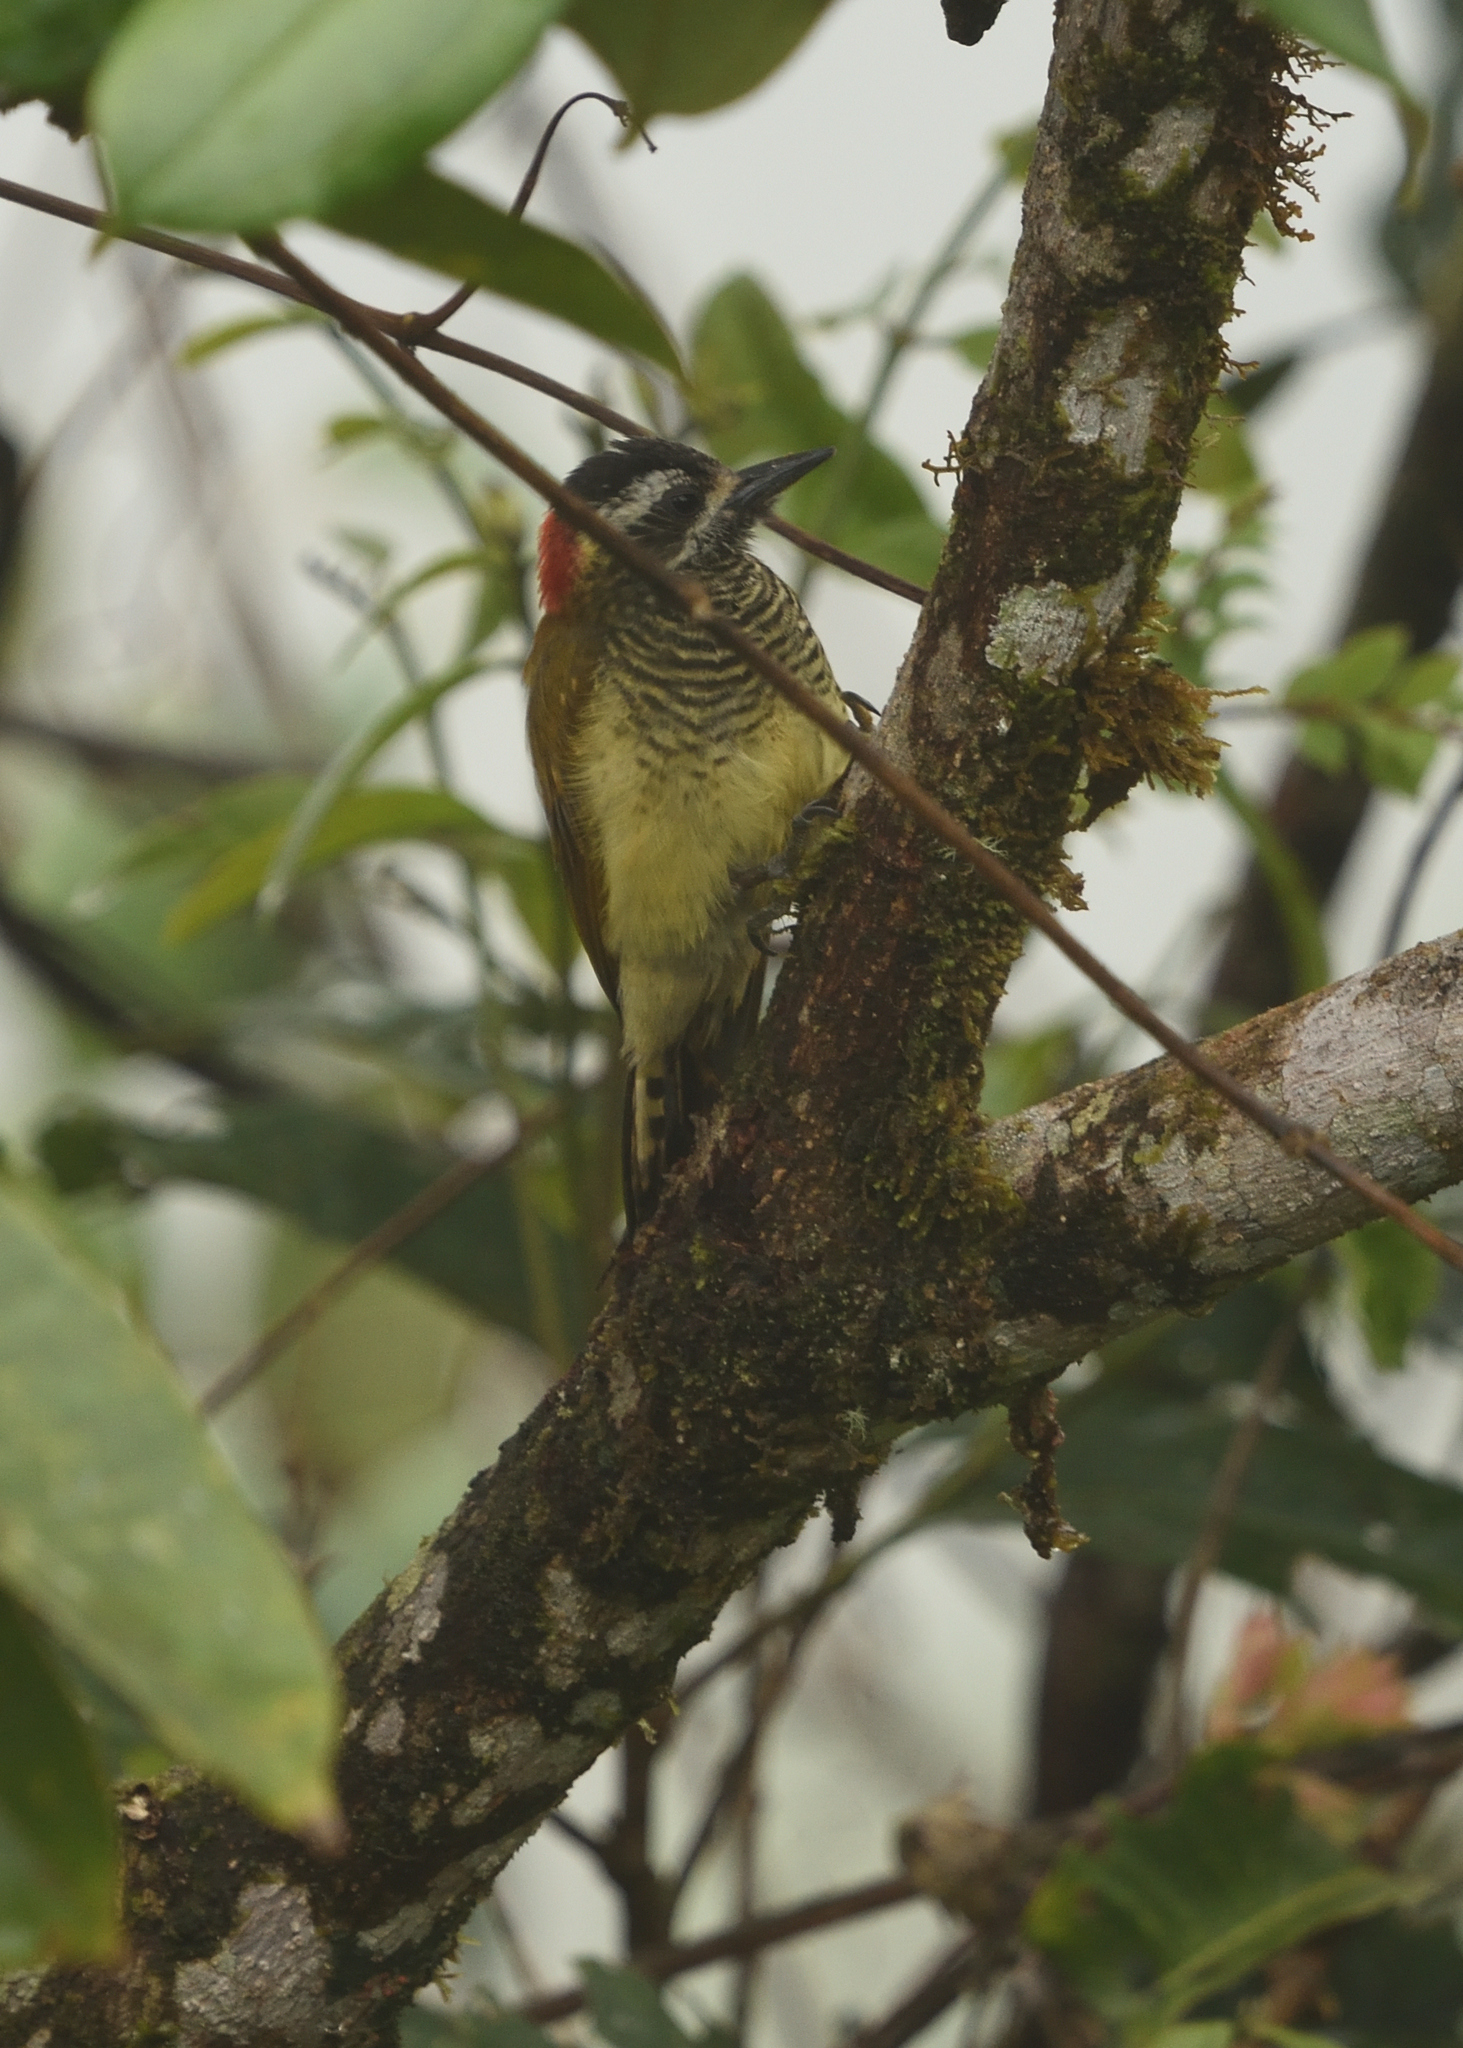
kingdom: Animalia
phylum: Chordata
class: Aves
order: Piciformes
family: Picidae
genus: Veniliornis
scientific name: Veniliornis dignus
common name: Yellow-vented woodpecker
